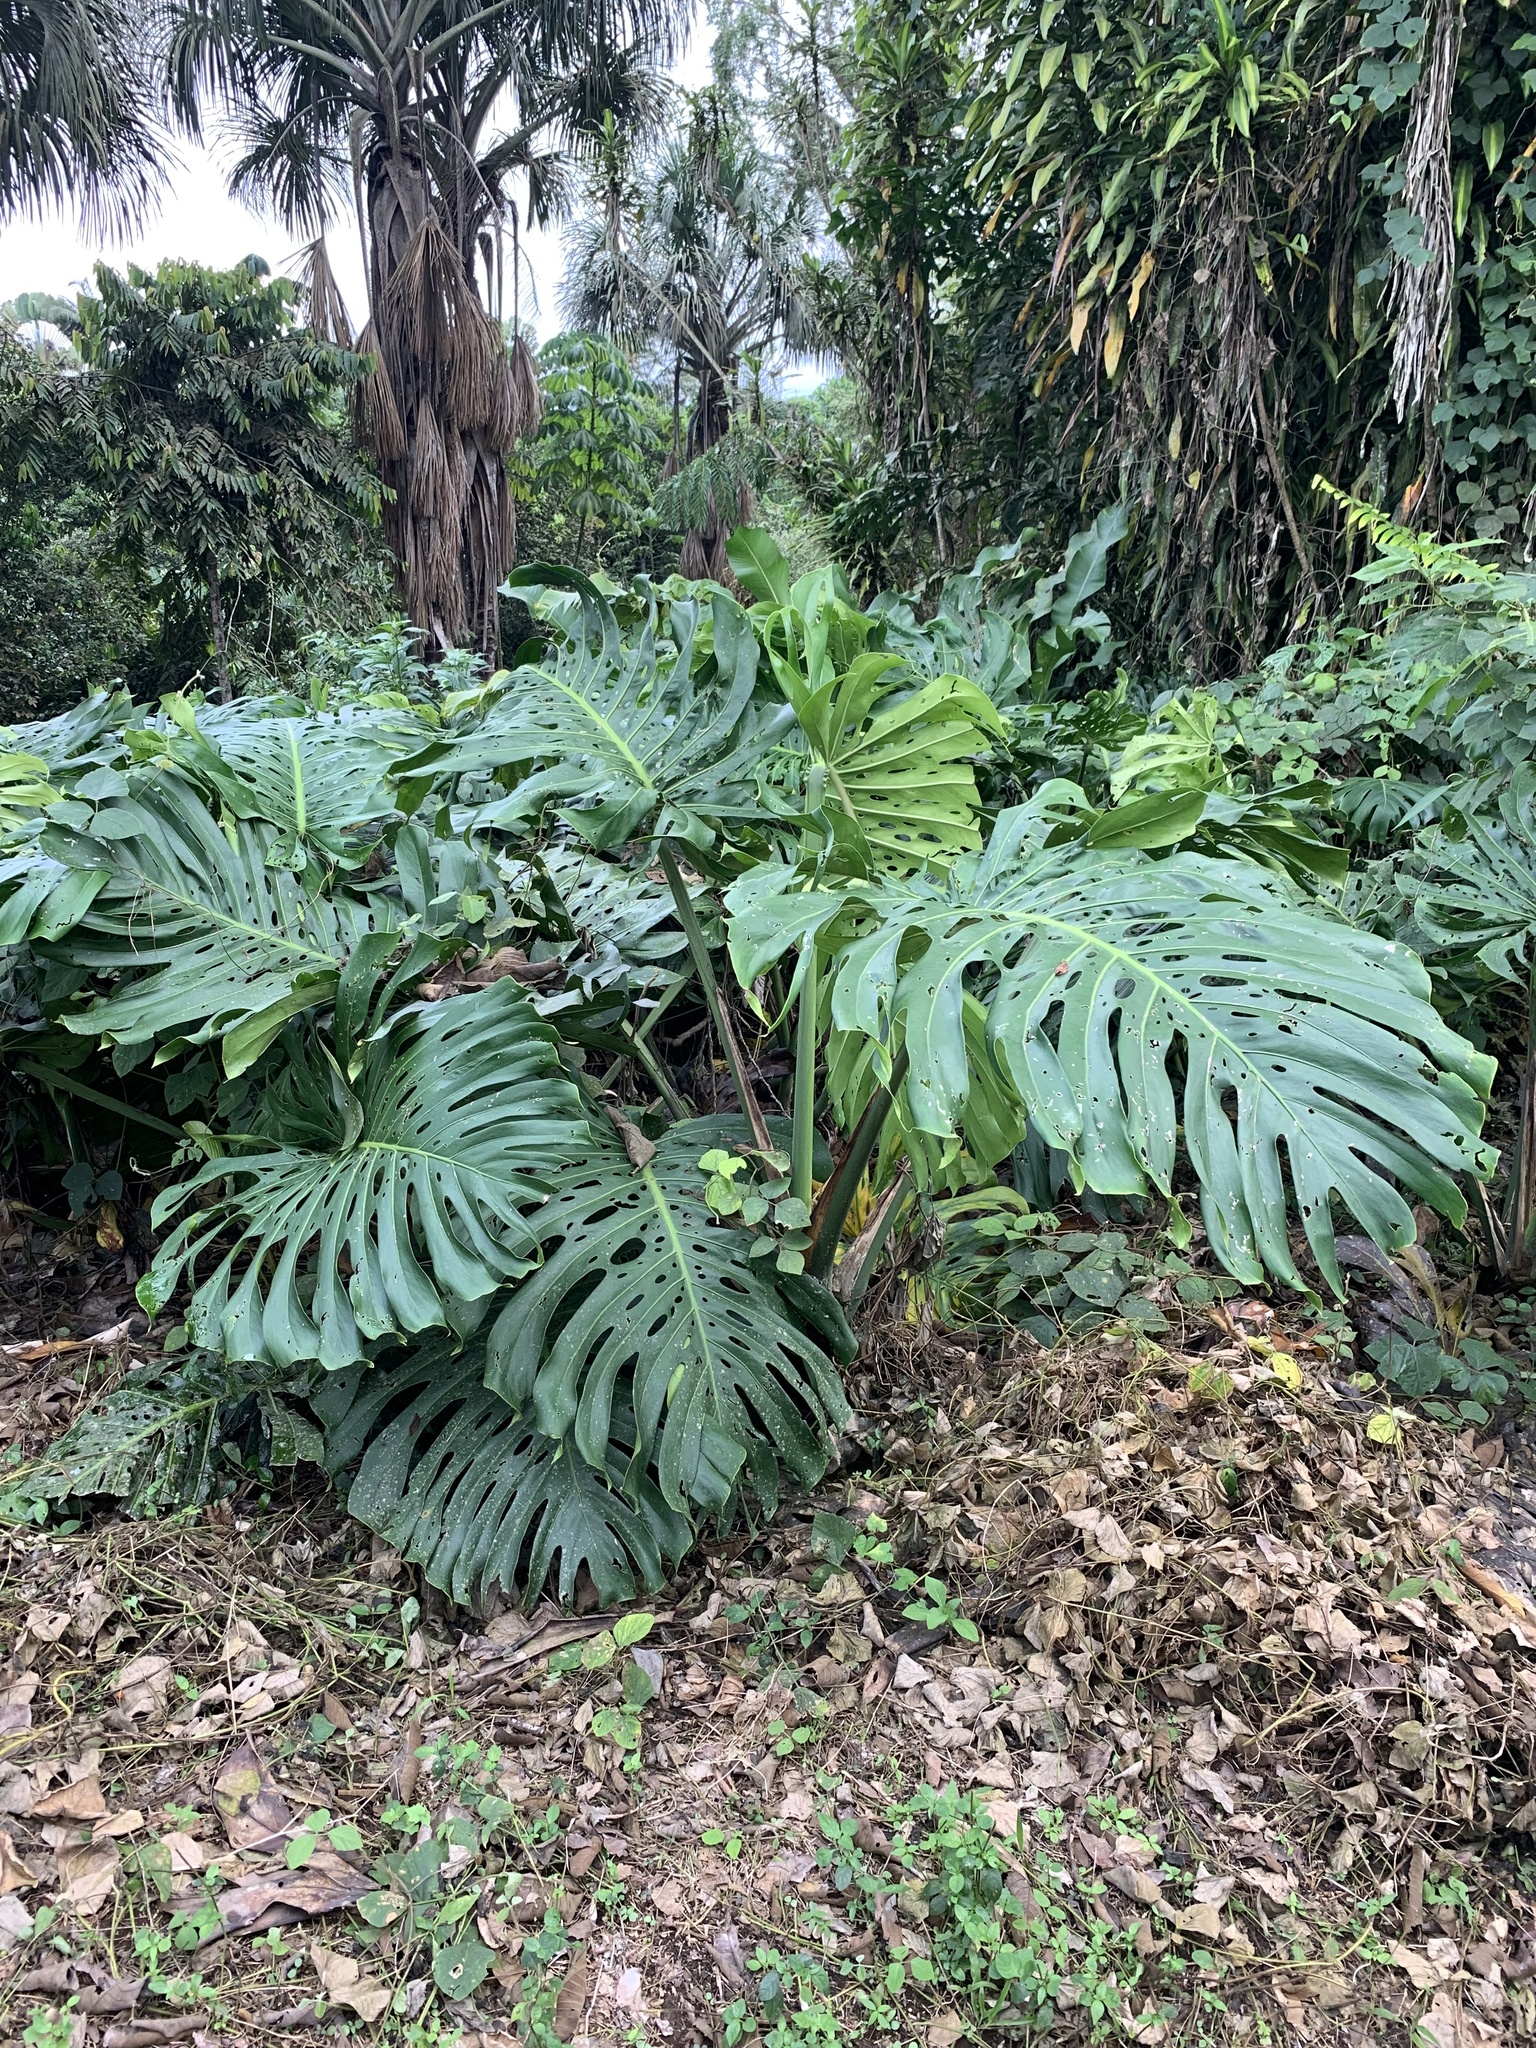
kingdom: Plantae
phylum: Tracheophyta
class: Liliopsida
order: Alismatales
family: Araceae
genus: Monstera
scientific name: Monstera deliciosa
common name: Cut-leaf-philodendron
